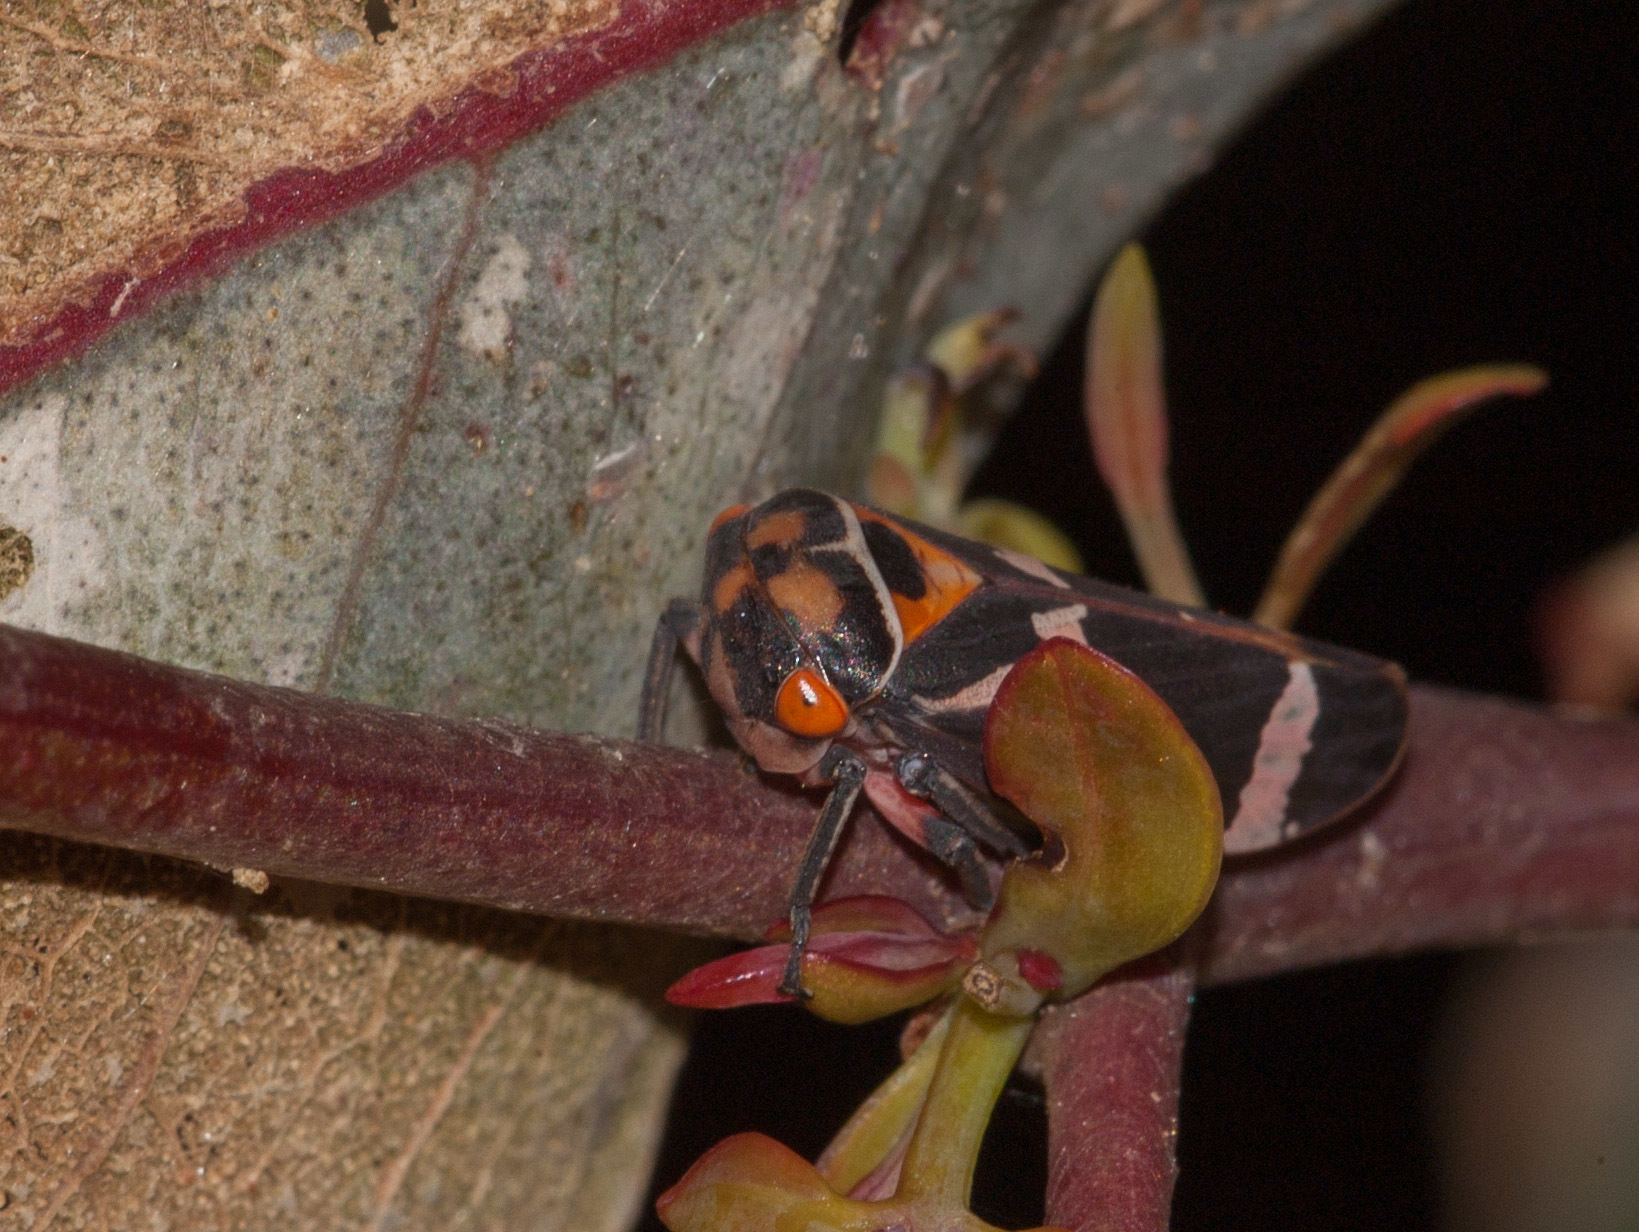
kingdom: Animalia
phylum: Arthropoda
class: Insecta
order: Hemiptera
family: Cicadellidae
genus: Eurymeloides
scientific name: Eurymeloides pulchra
